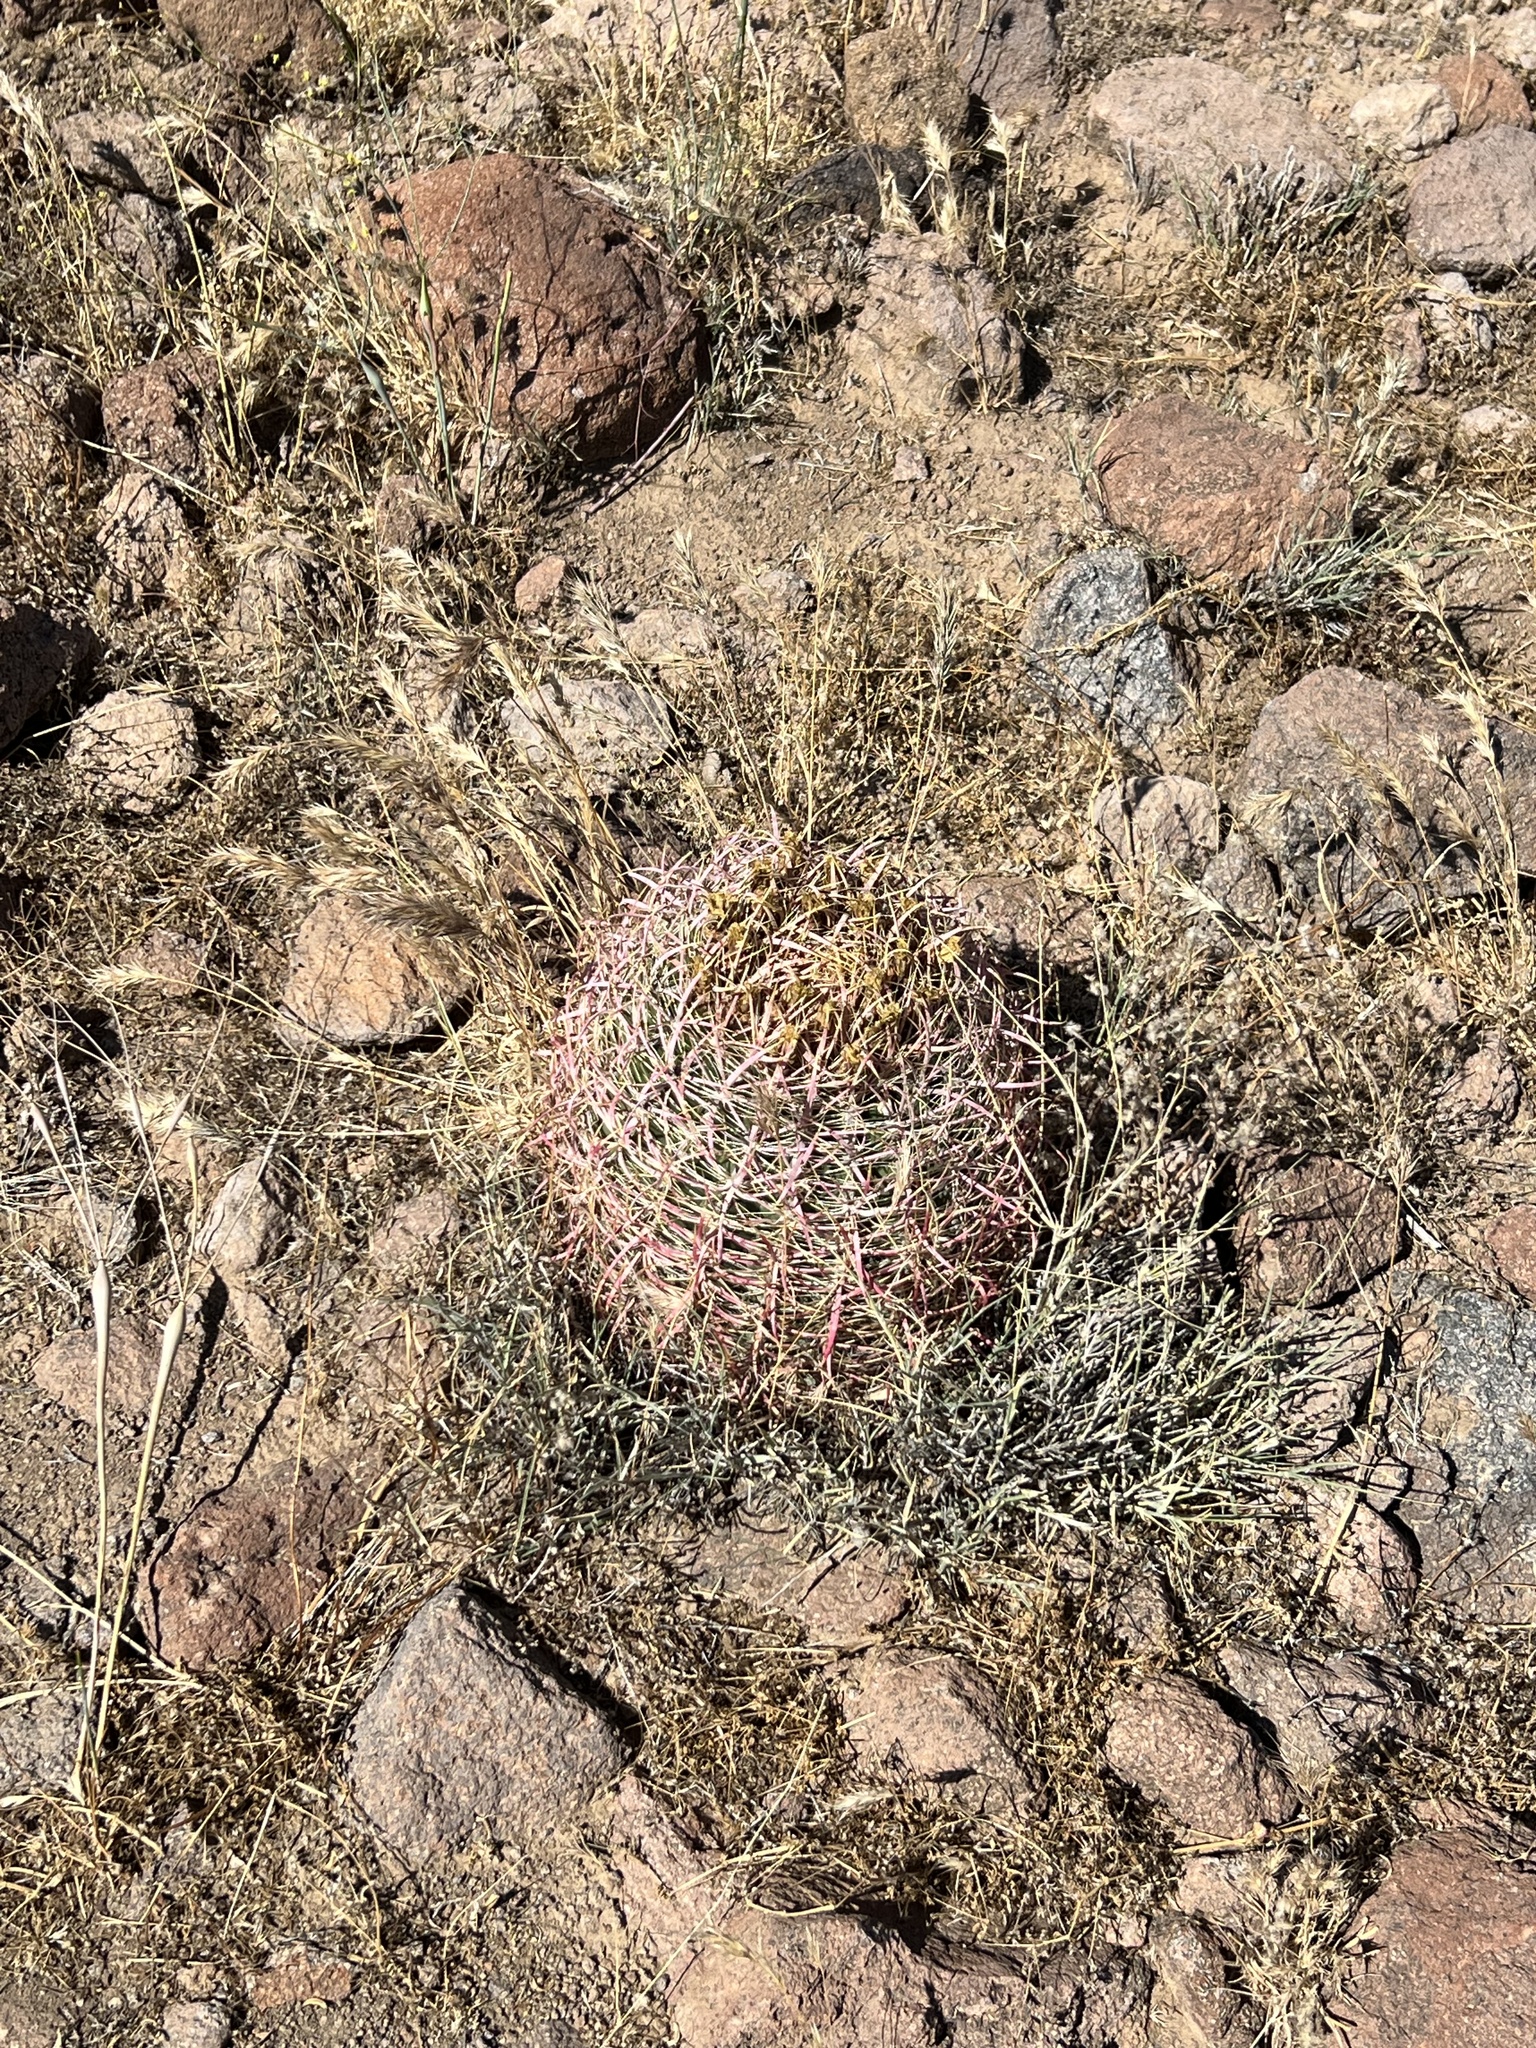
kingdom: Plantae
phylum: Tracheophyta
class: Magnoliopsida
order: Caryophyllales
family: Cactaceae
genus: Ferocactus
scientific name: Ferocactus cylindraceus
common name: California barrel cactus
